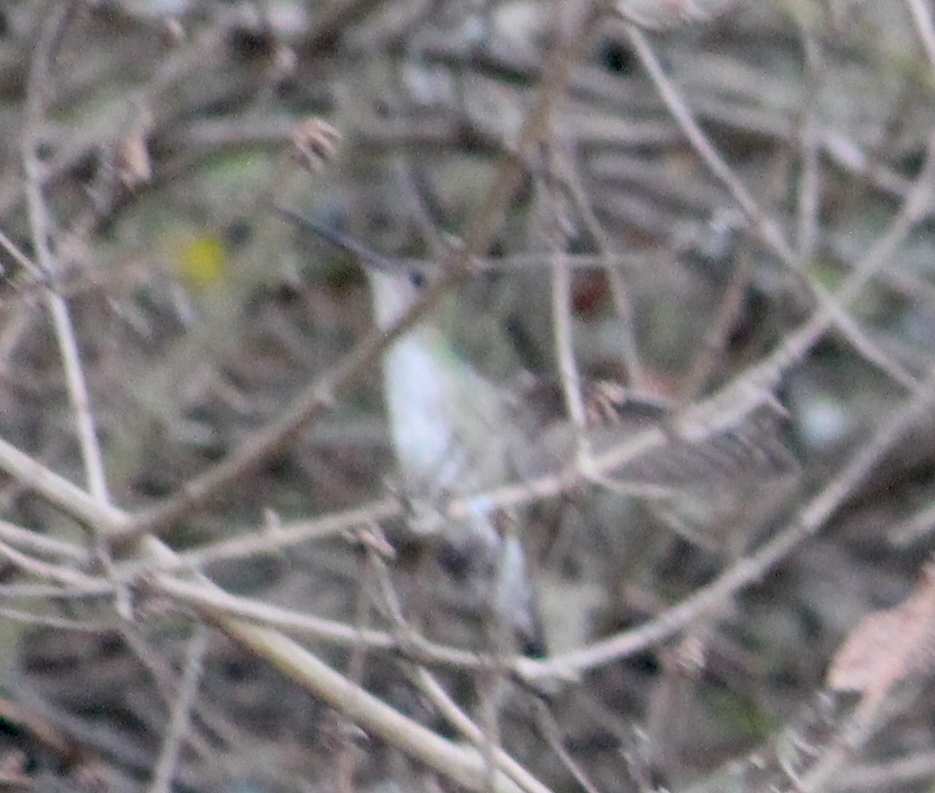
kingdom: Animalia
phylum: Chordata
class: Aves
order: Apodiformes
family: Trochilidae
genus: Elliotomyia
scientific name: Elliotomyia chionogaster
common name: White-bellied hummingbird
